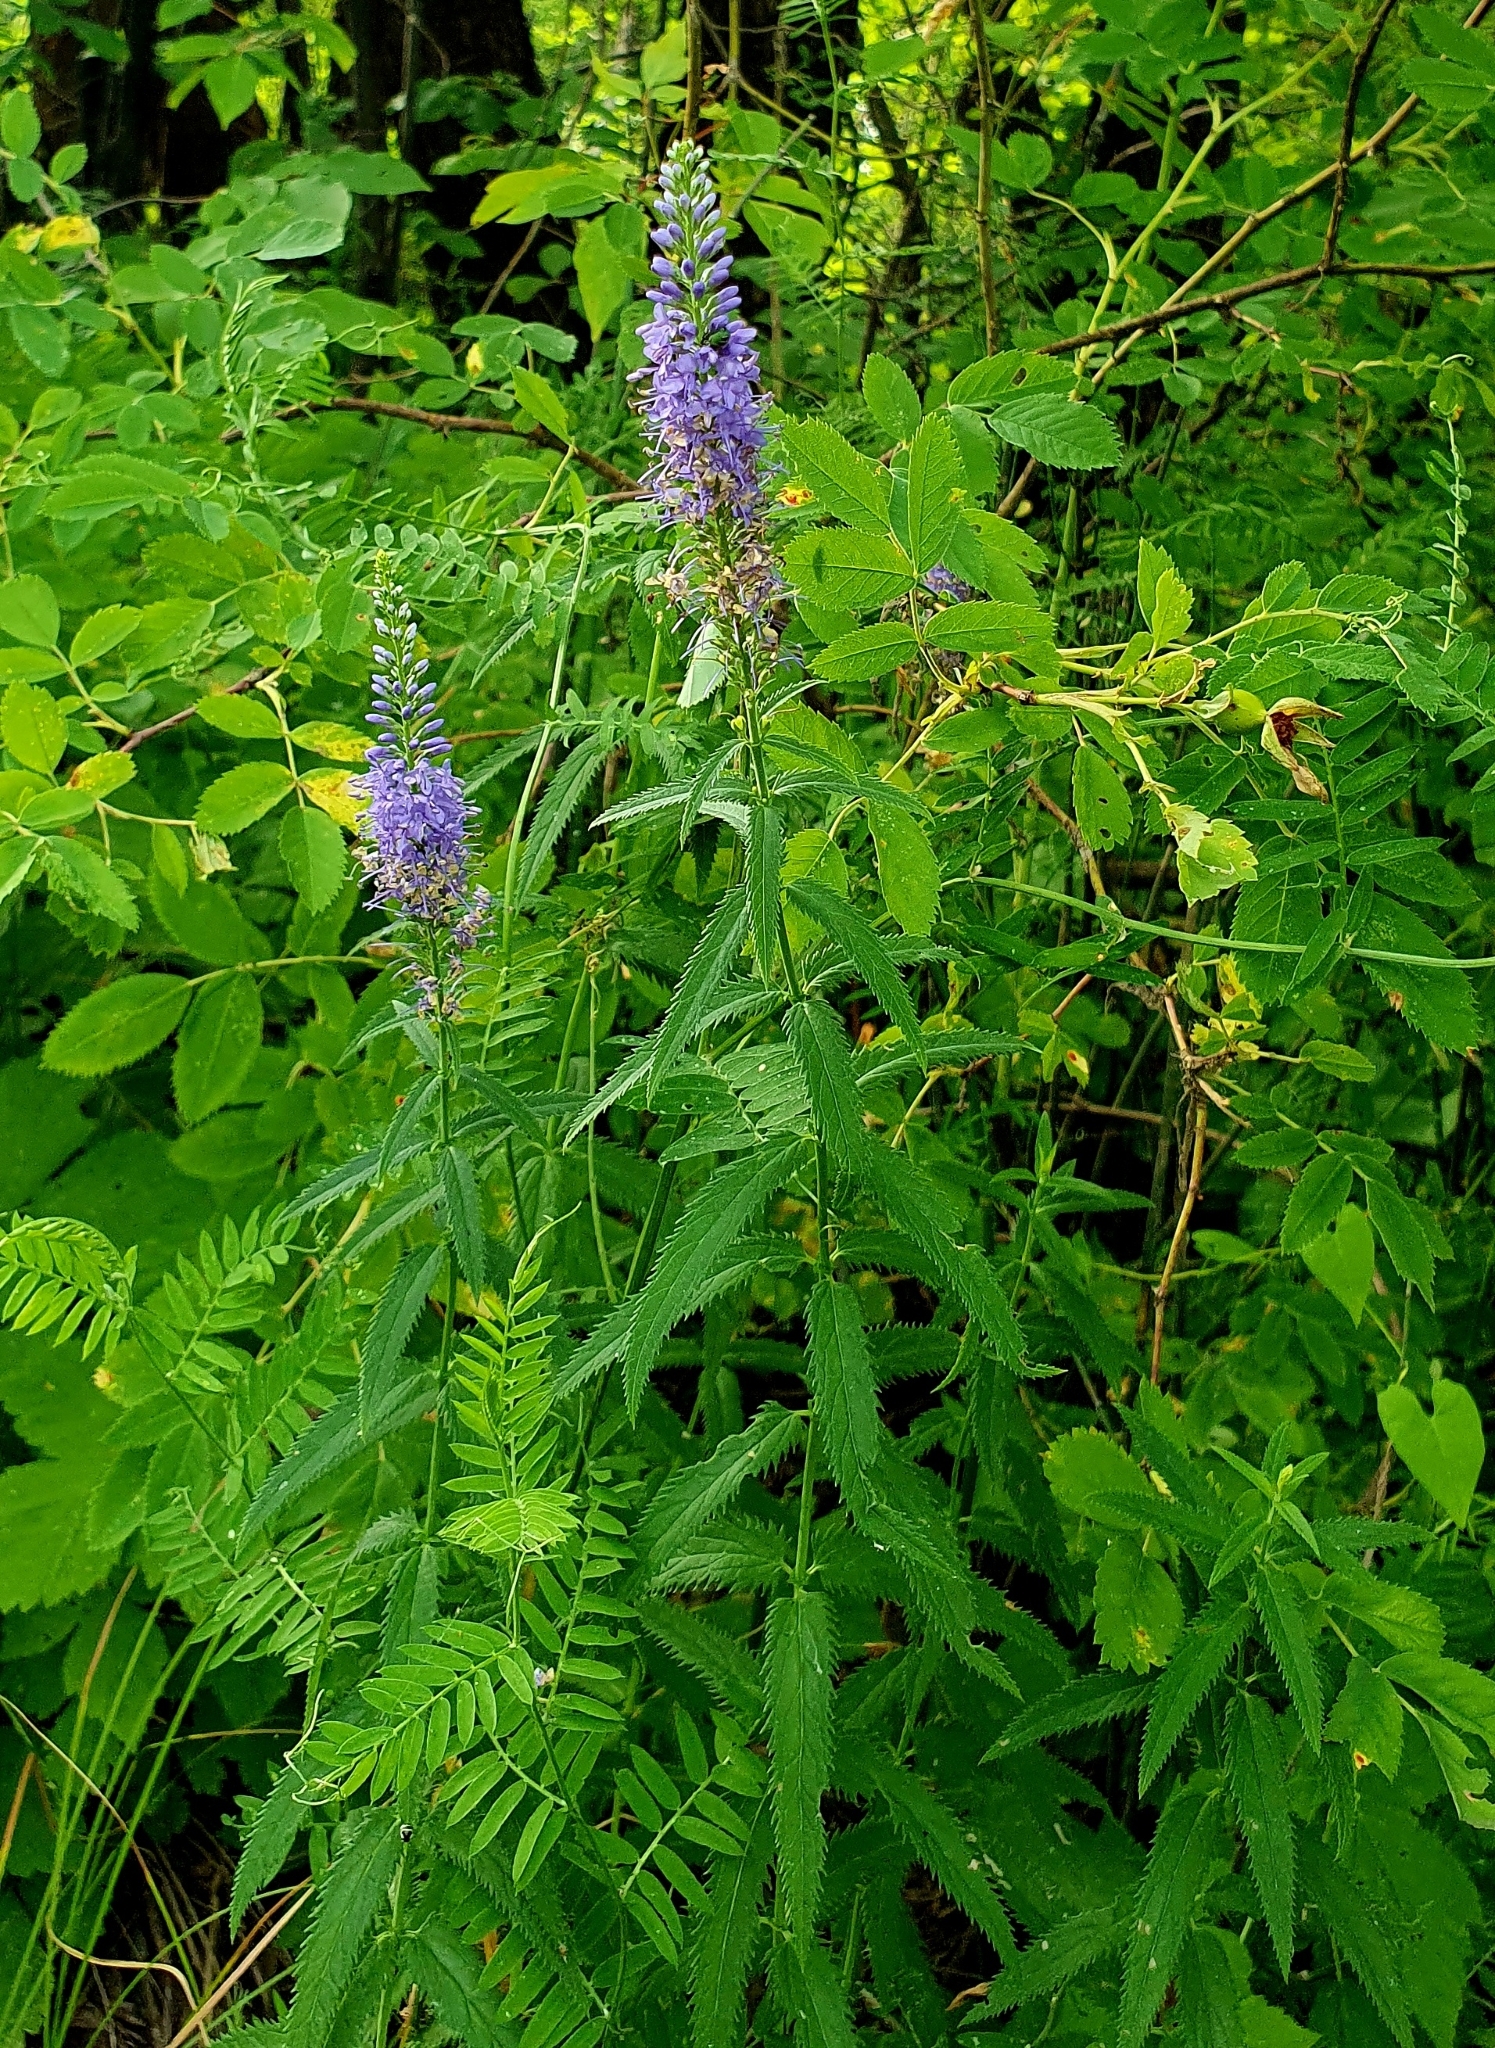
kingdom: Plantae
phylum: Tracheophyta
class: Magnoliopsida
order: Lamiales
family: Plantaginaceae
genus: Veronica
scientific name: Veronica longifolia
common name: Garden speedwell
